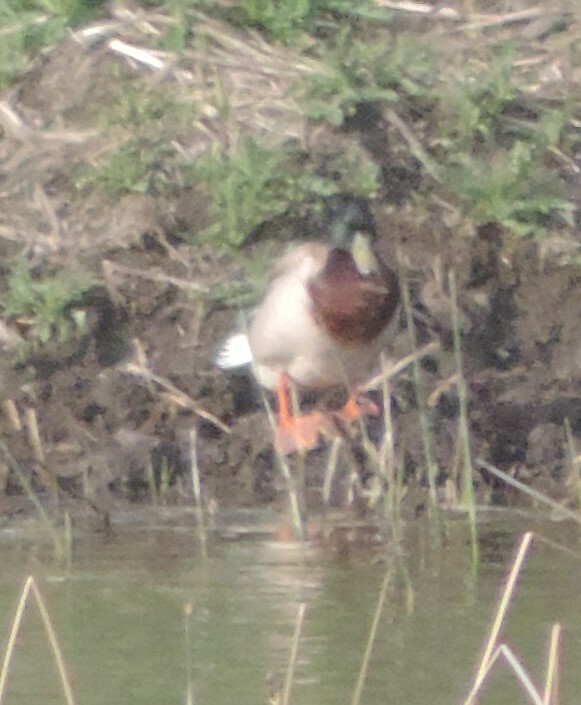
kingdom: Animalia
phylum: Chordata
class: Aves
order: Anseriformes
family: Anatidae
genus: Anas
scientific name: Anas platyrhynchos
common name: Mallard
